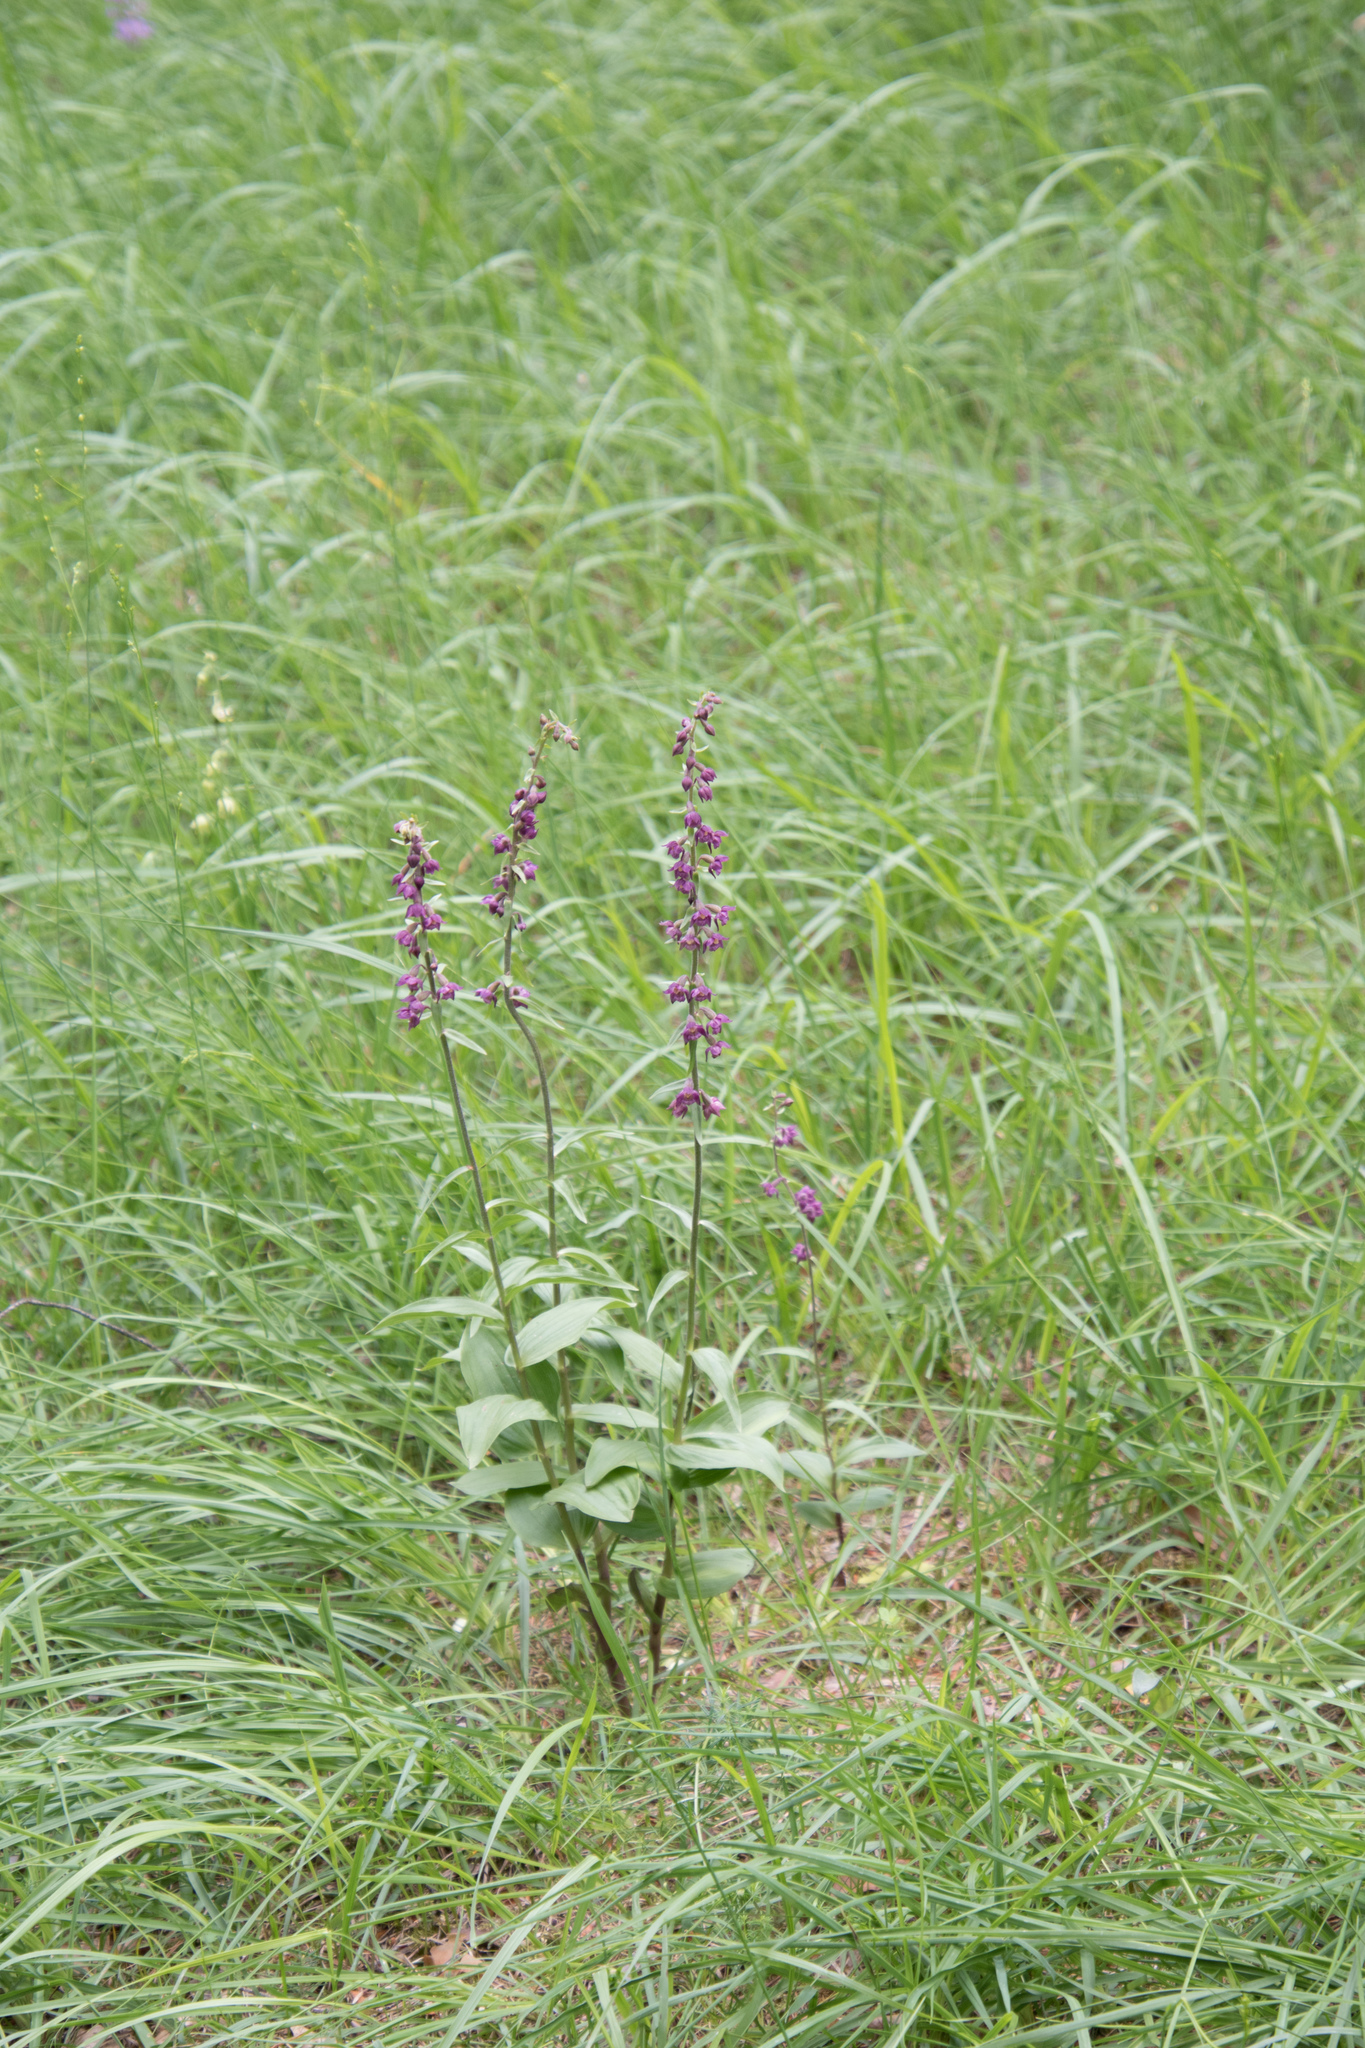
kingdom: Plantae
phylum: Tracheophyta
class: Liliopsida
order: Asparagales
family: Orchidaceae
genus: Epipactis
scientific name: Epipactis atrorubens
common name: Dark-red helleborine
